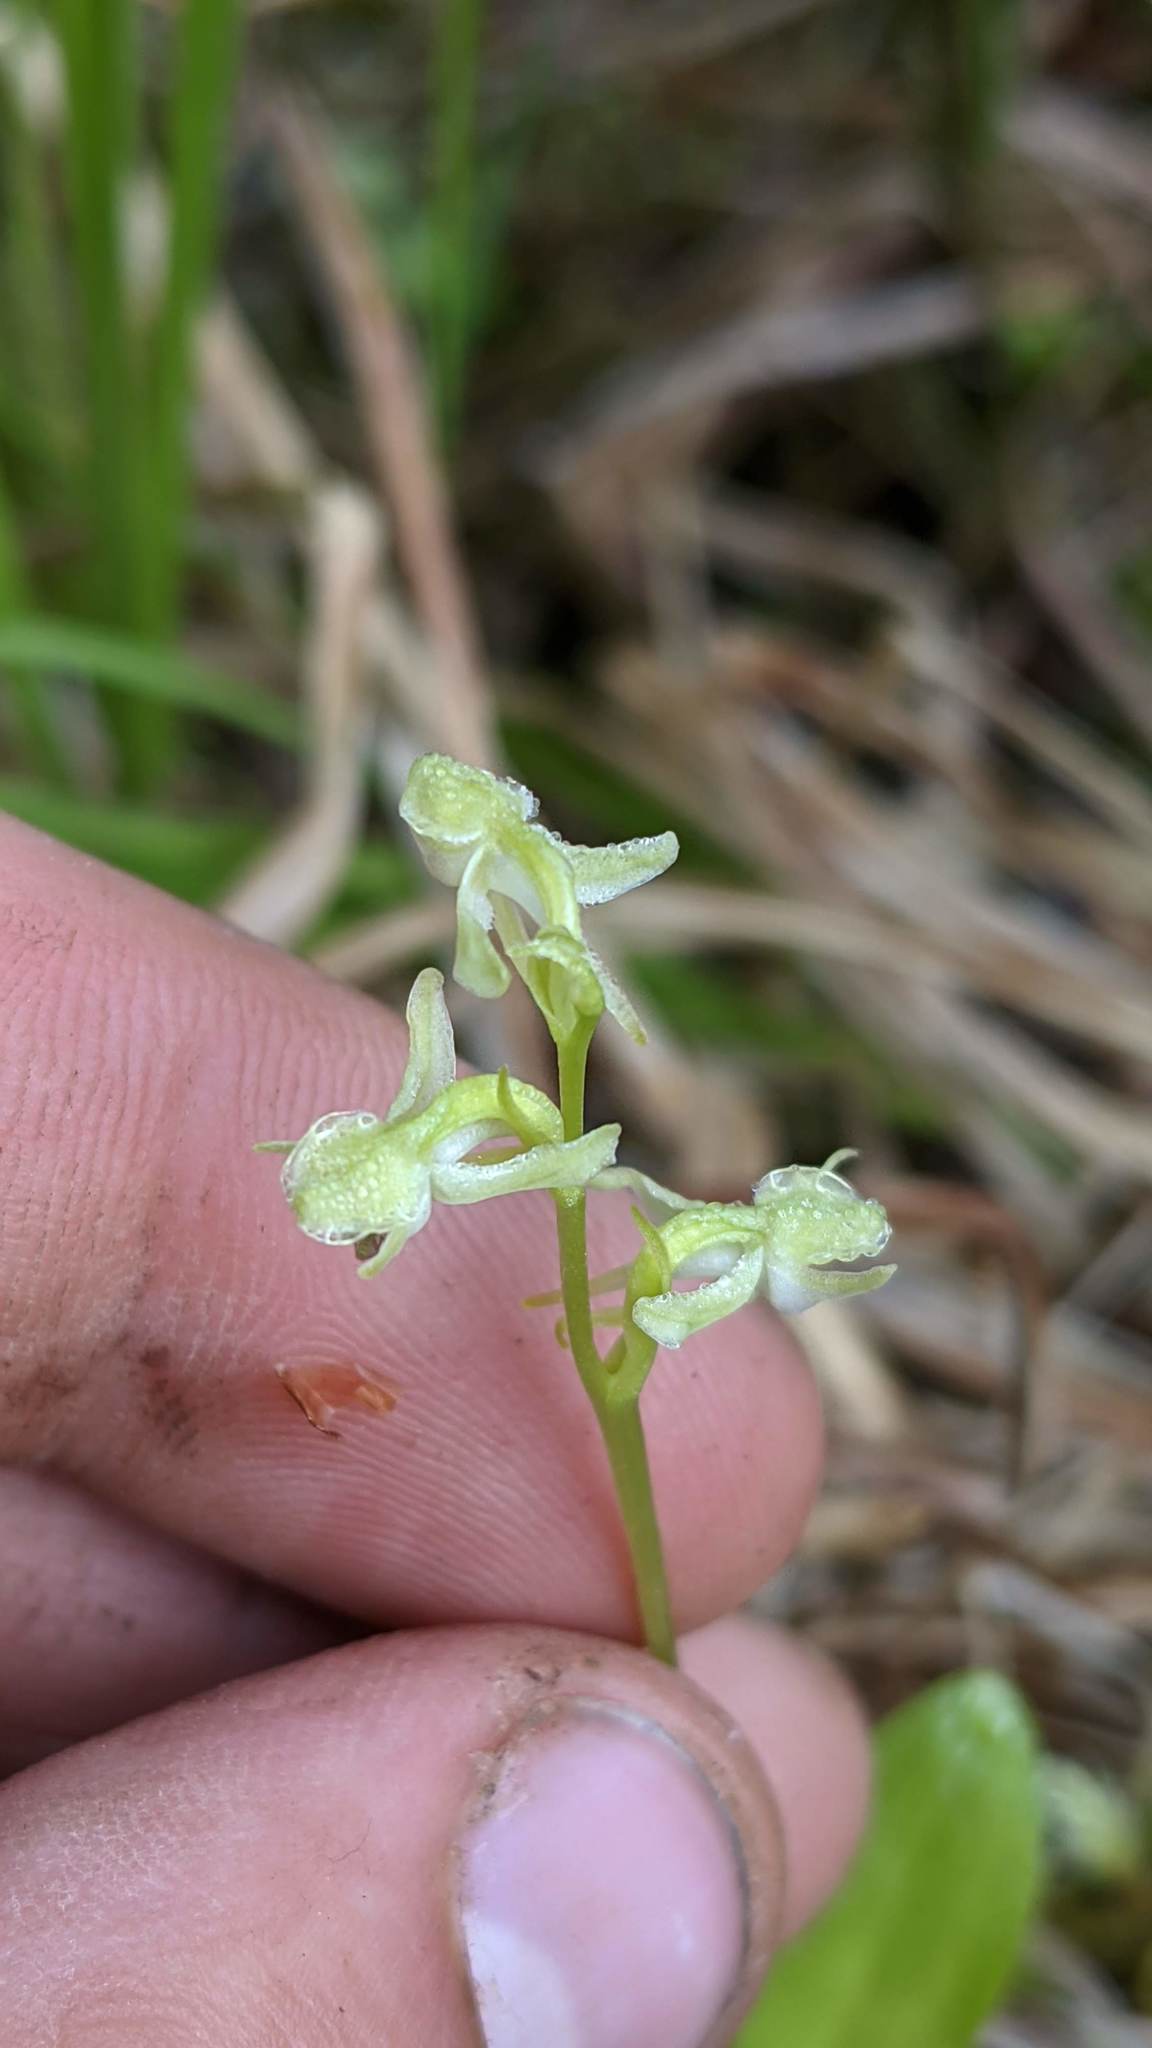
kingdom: Plantae
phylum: Tracheophyta
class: Liliopsida
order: Asparagales
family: Orchidaceae
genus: Platanthera
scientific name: Platanthera obtusata
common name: Blunt bog orchid
